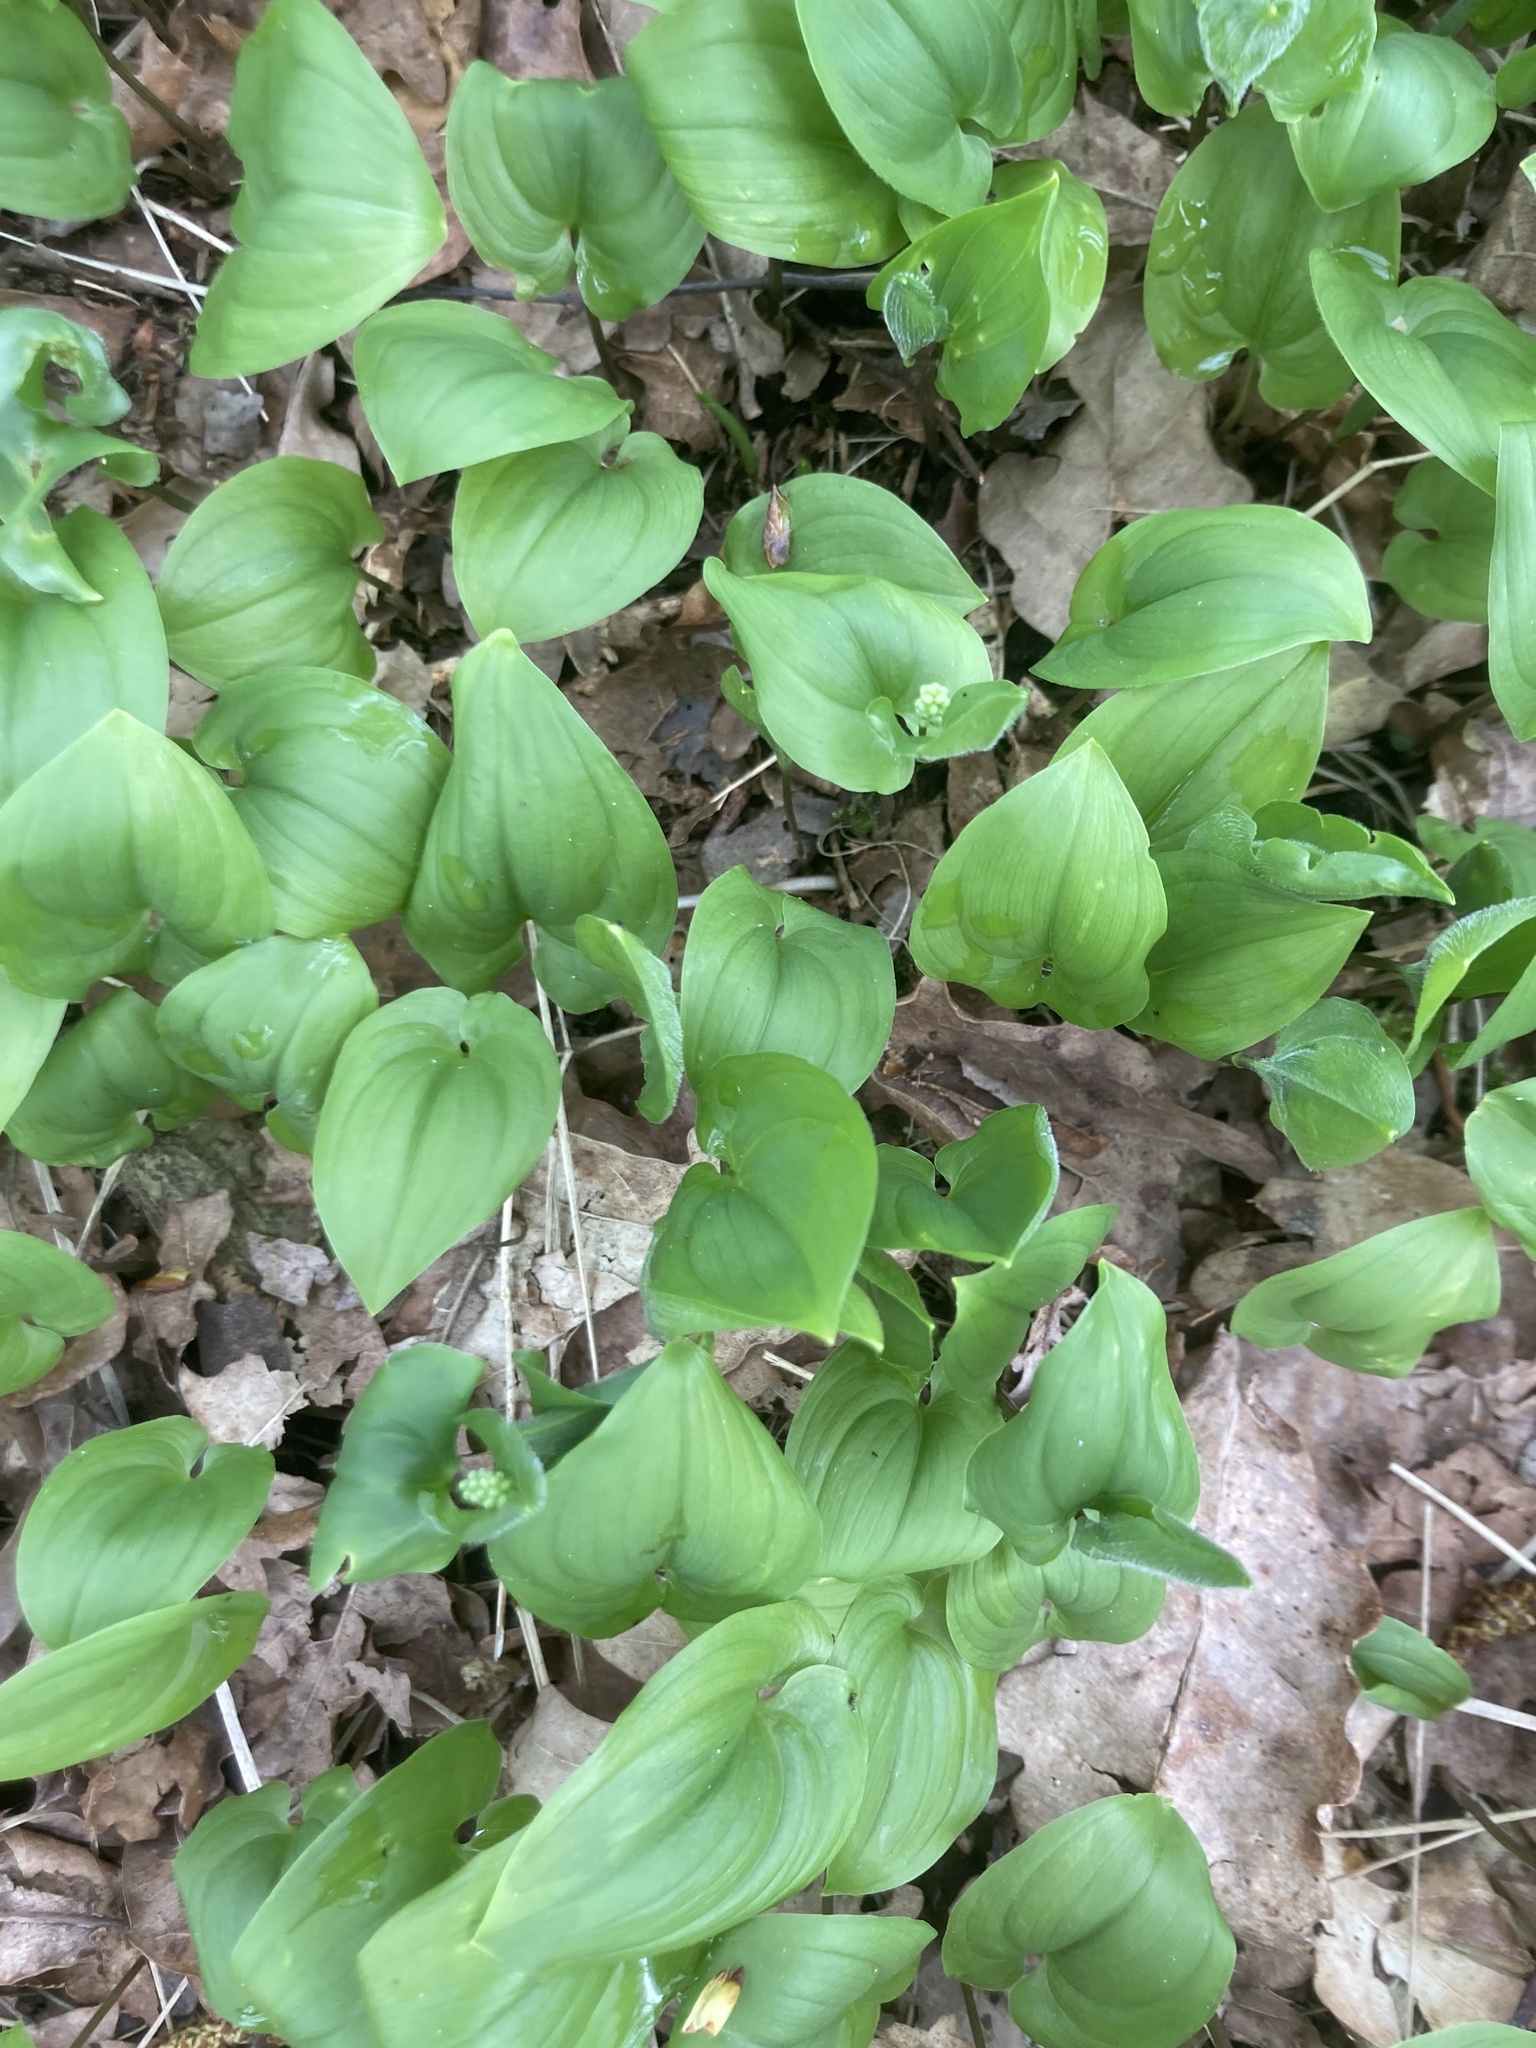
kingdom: Plantae
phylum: Tracheophyta
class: Liliopsida
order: Asparagales
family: Asparagaceae
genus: Maianthemum
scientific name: Maianthemum bifolium
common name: May lily
